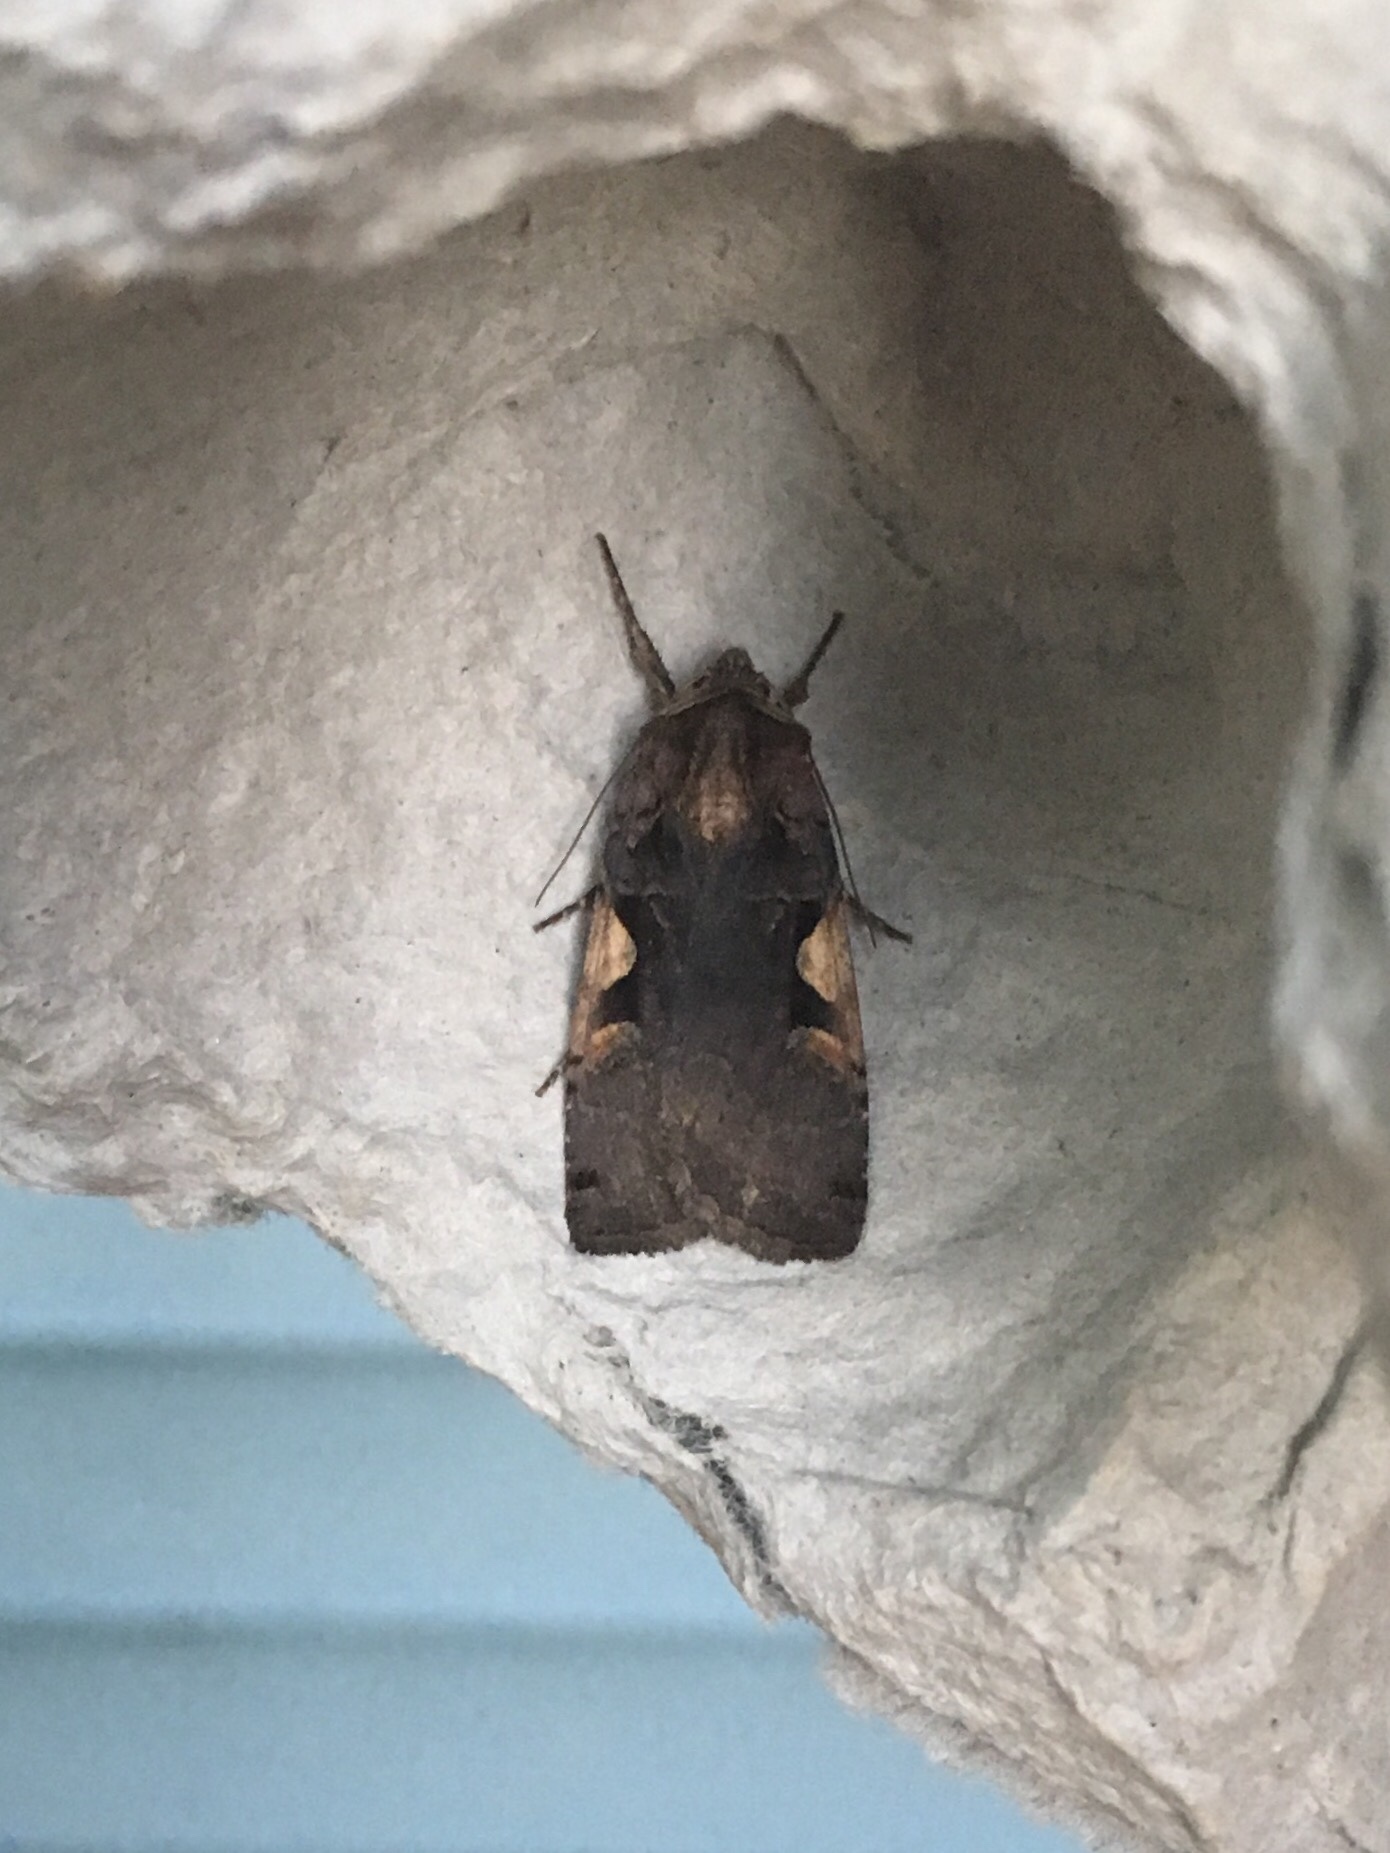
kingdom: Animalia
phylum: Arthropoda
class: Insecta
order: Lepidoptera
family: Noctuidae
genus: Xestia
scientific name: Xestia
